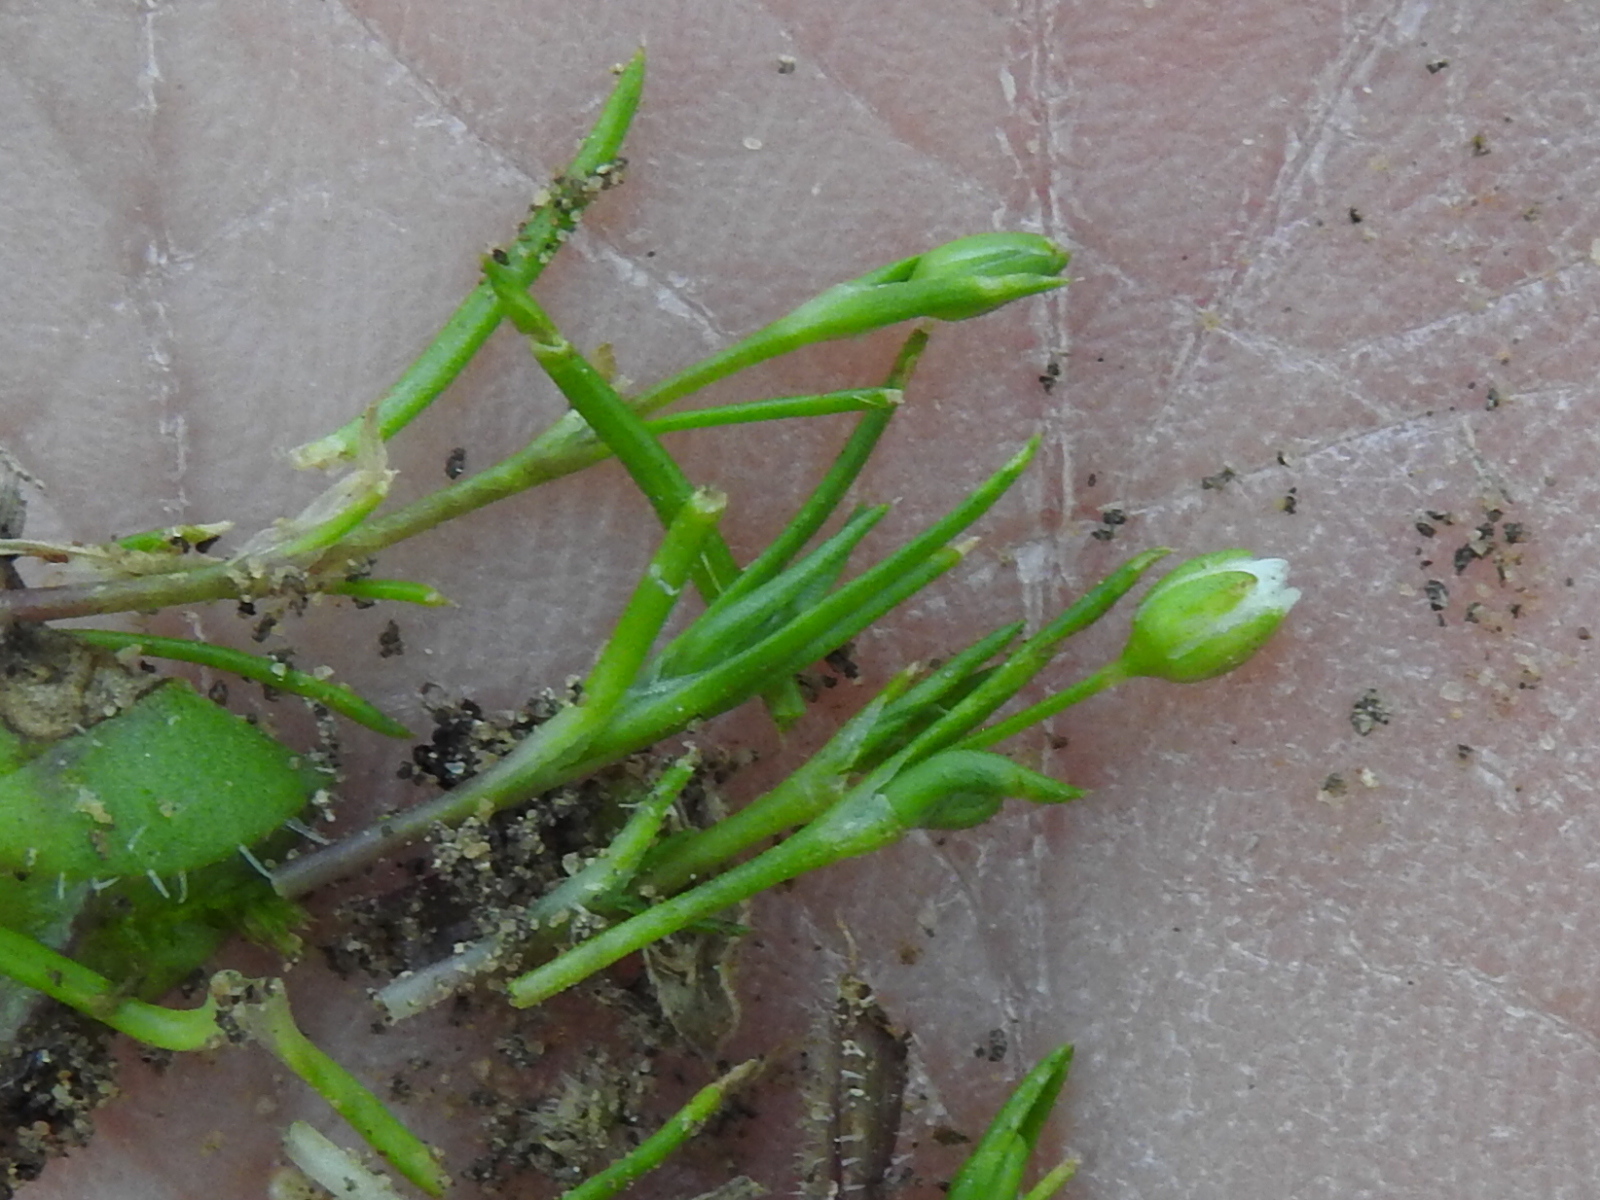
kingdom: Plantae
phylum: Tracheophyta
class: Magnoliopsida
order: Caryophyllales
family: Caryophyllaceae
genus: Sagina
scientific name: Sagina decumbens
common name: Decumbent pearlwort
